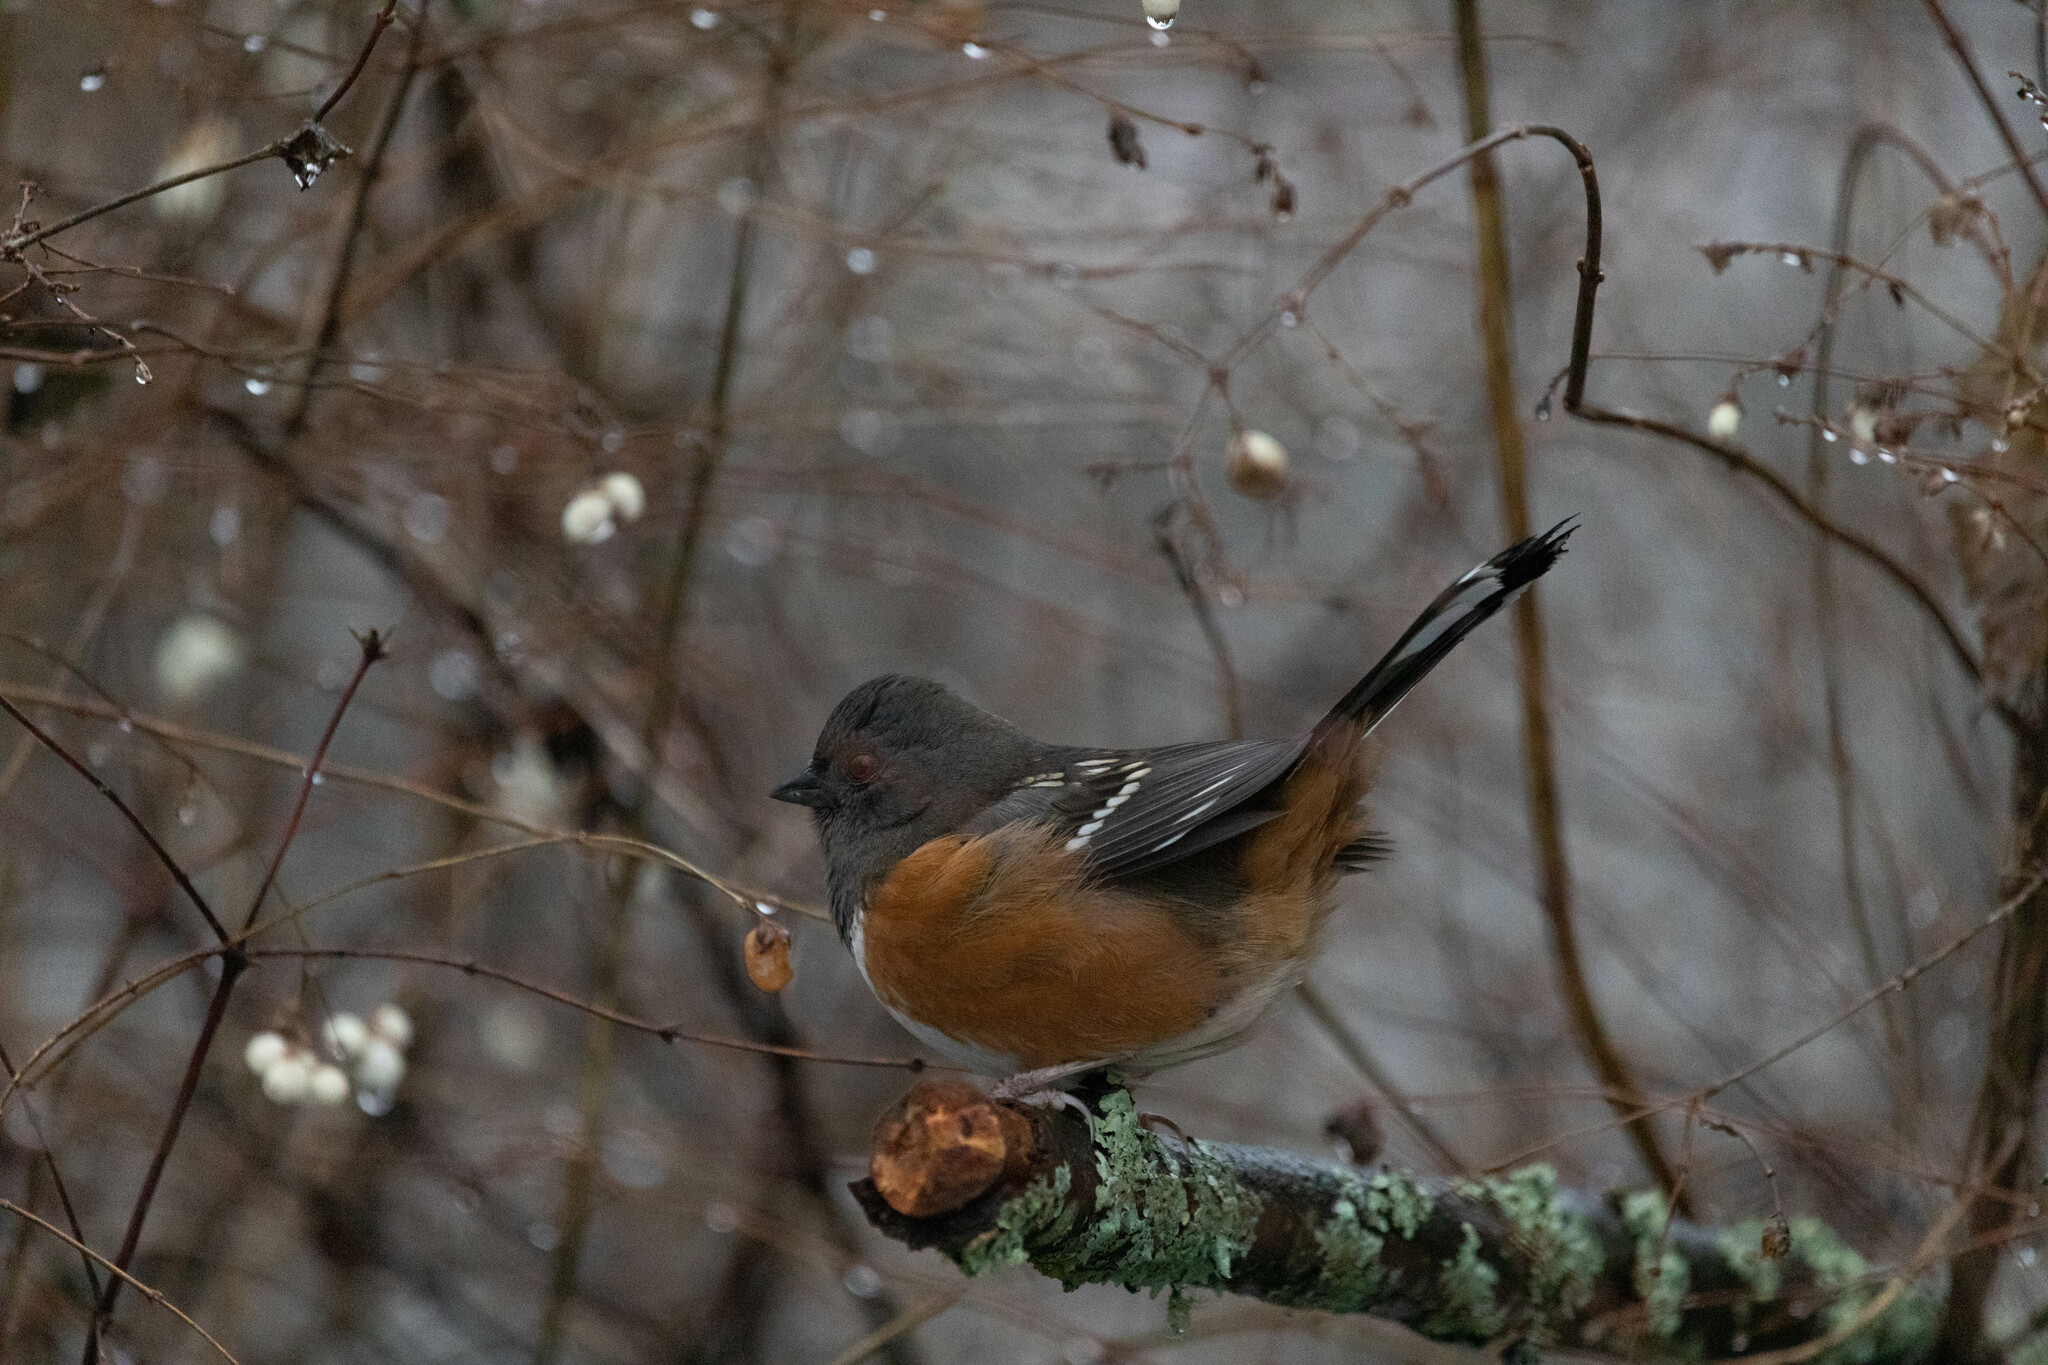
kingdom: Animalia
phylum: Chordata
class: Aves
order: Passeriformes
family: Passerellidae
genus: Pipilo
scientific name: Pipilo maculatus
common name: Spotted towhee
